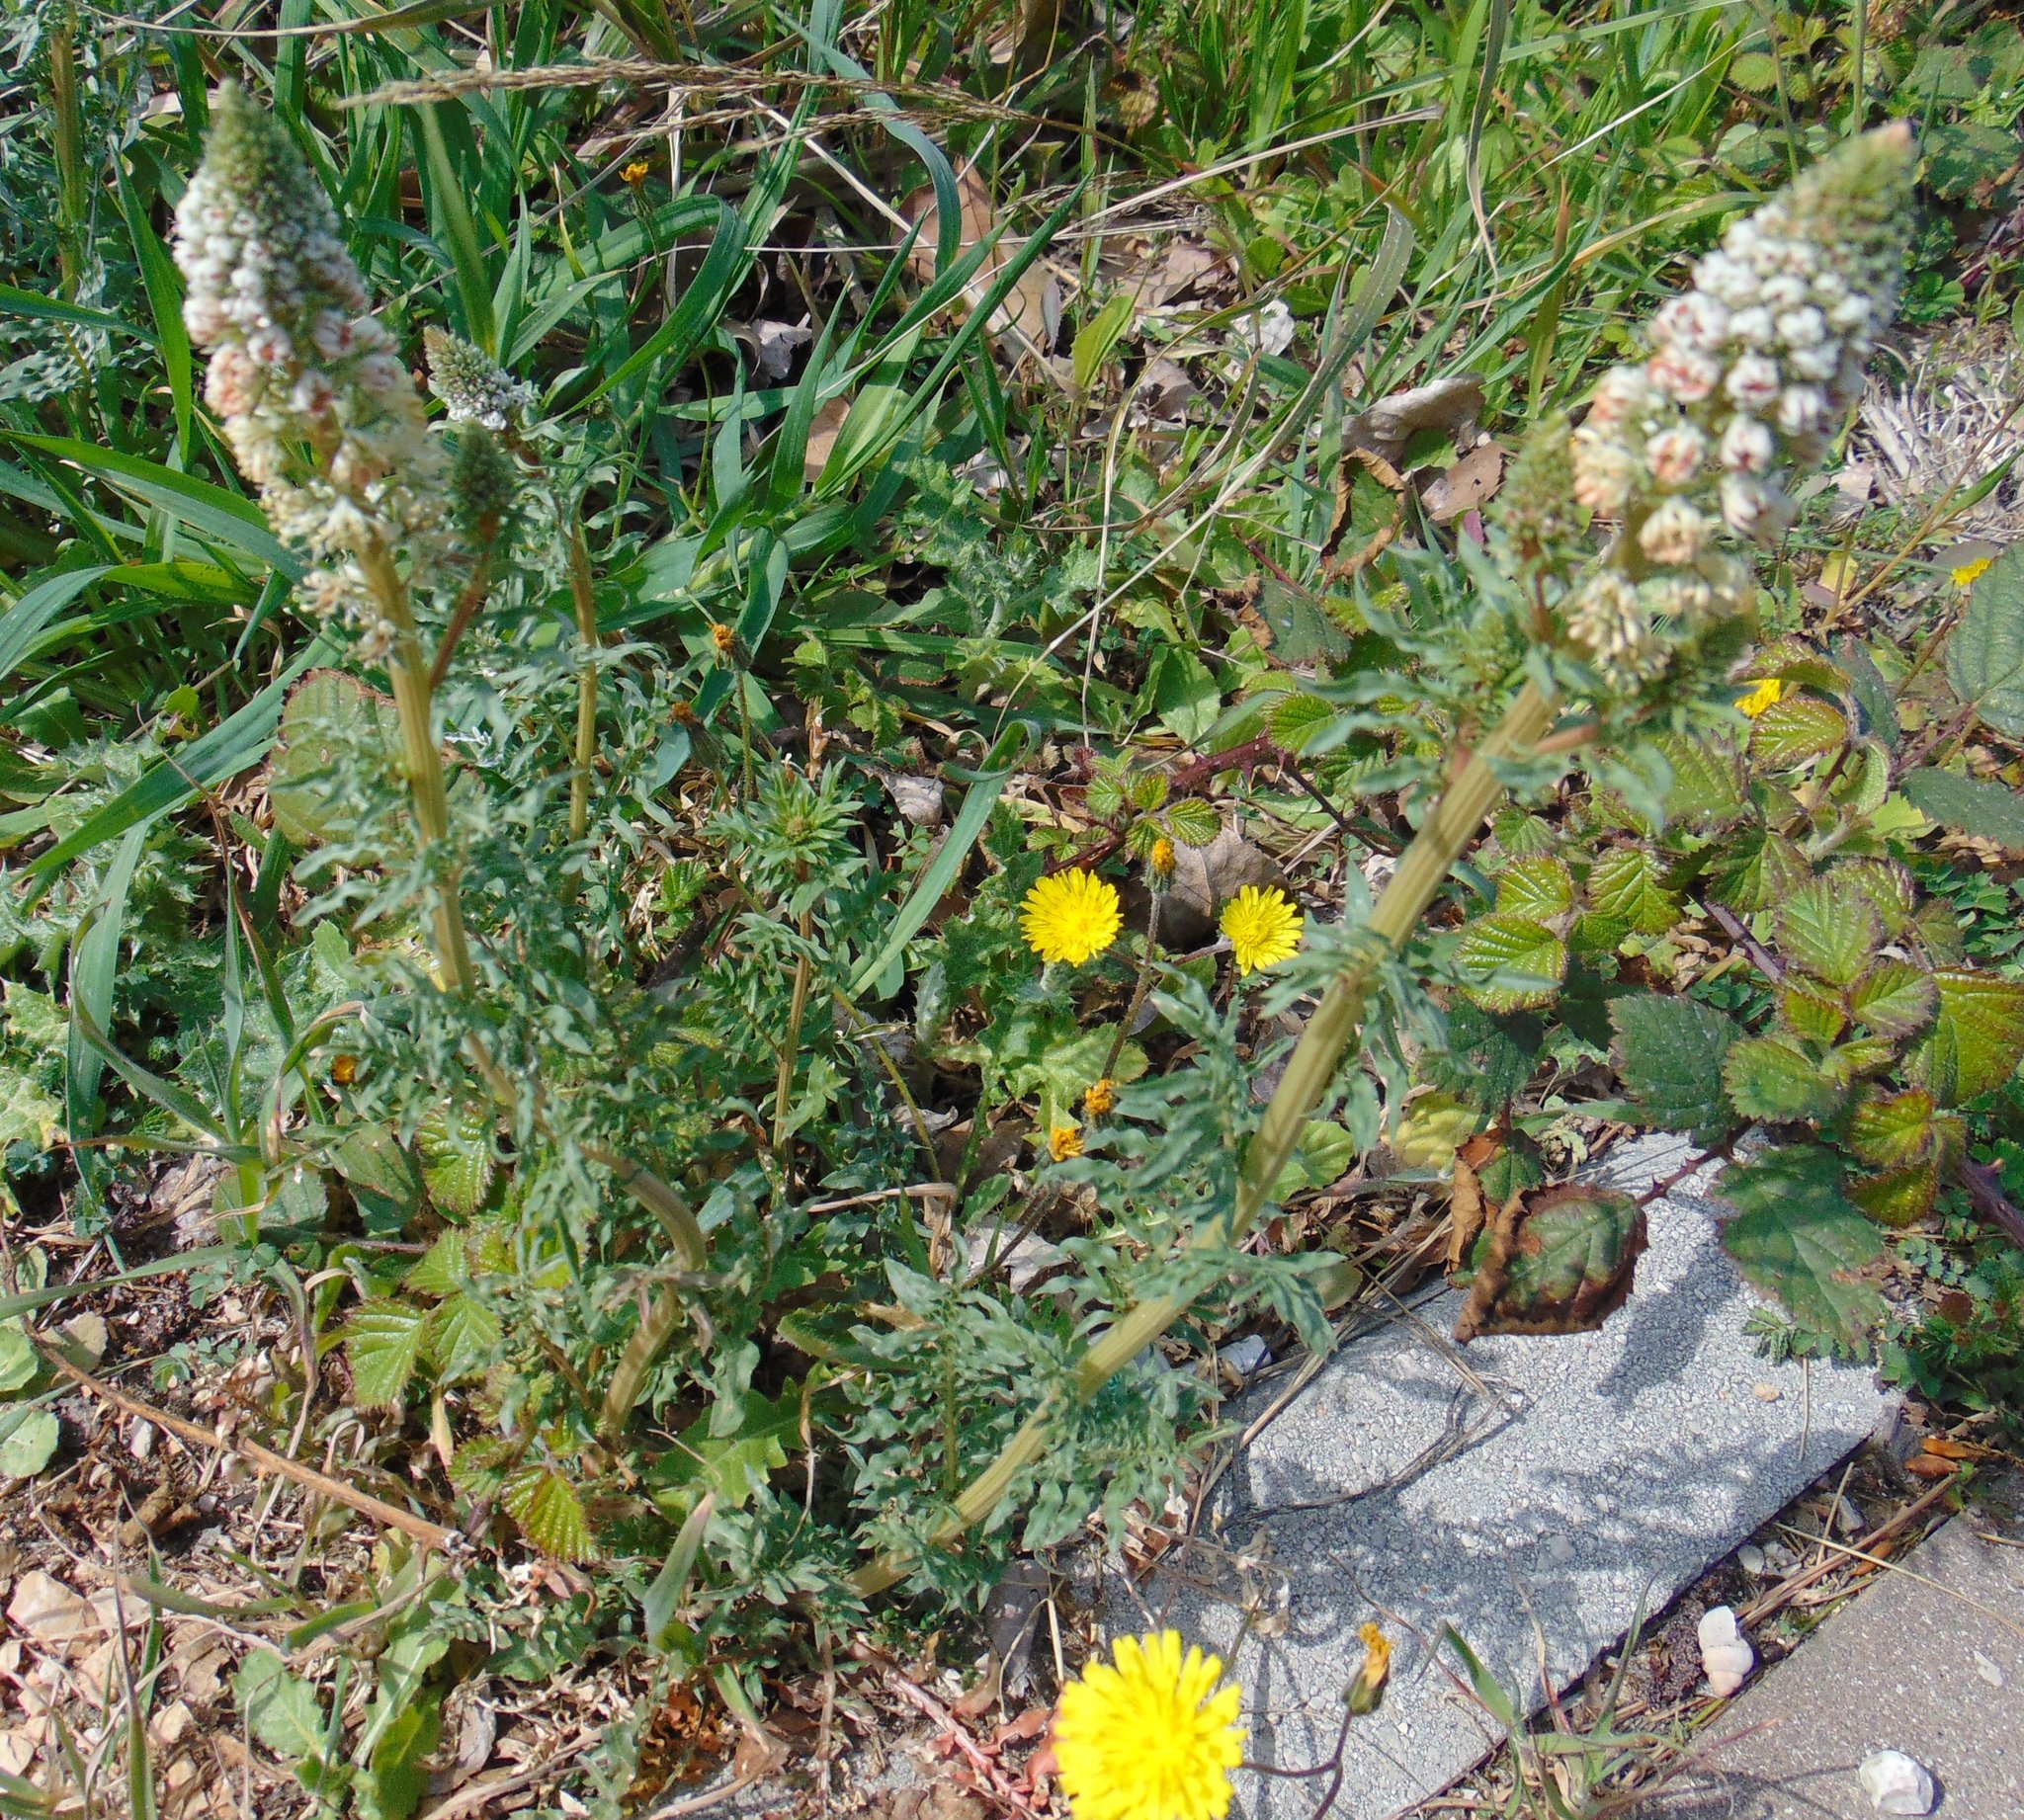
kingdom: Plantae
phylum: Tracheophyta
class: Magnoliopsida
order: Brassicales
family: Resedaceae
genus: Reseda
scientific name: Reseda alba
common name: White mignonette
